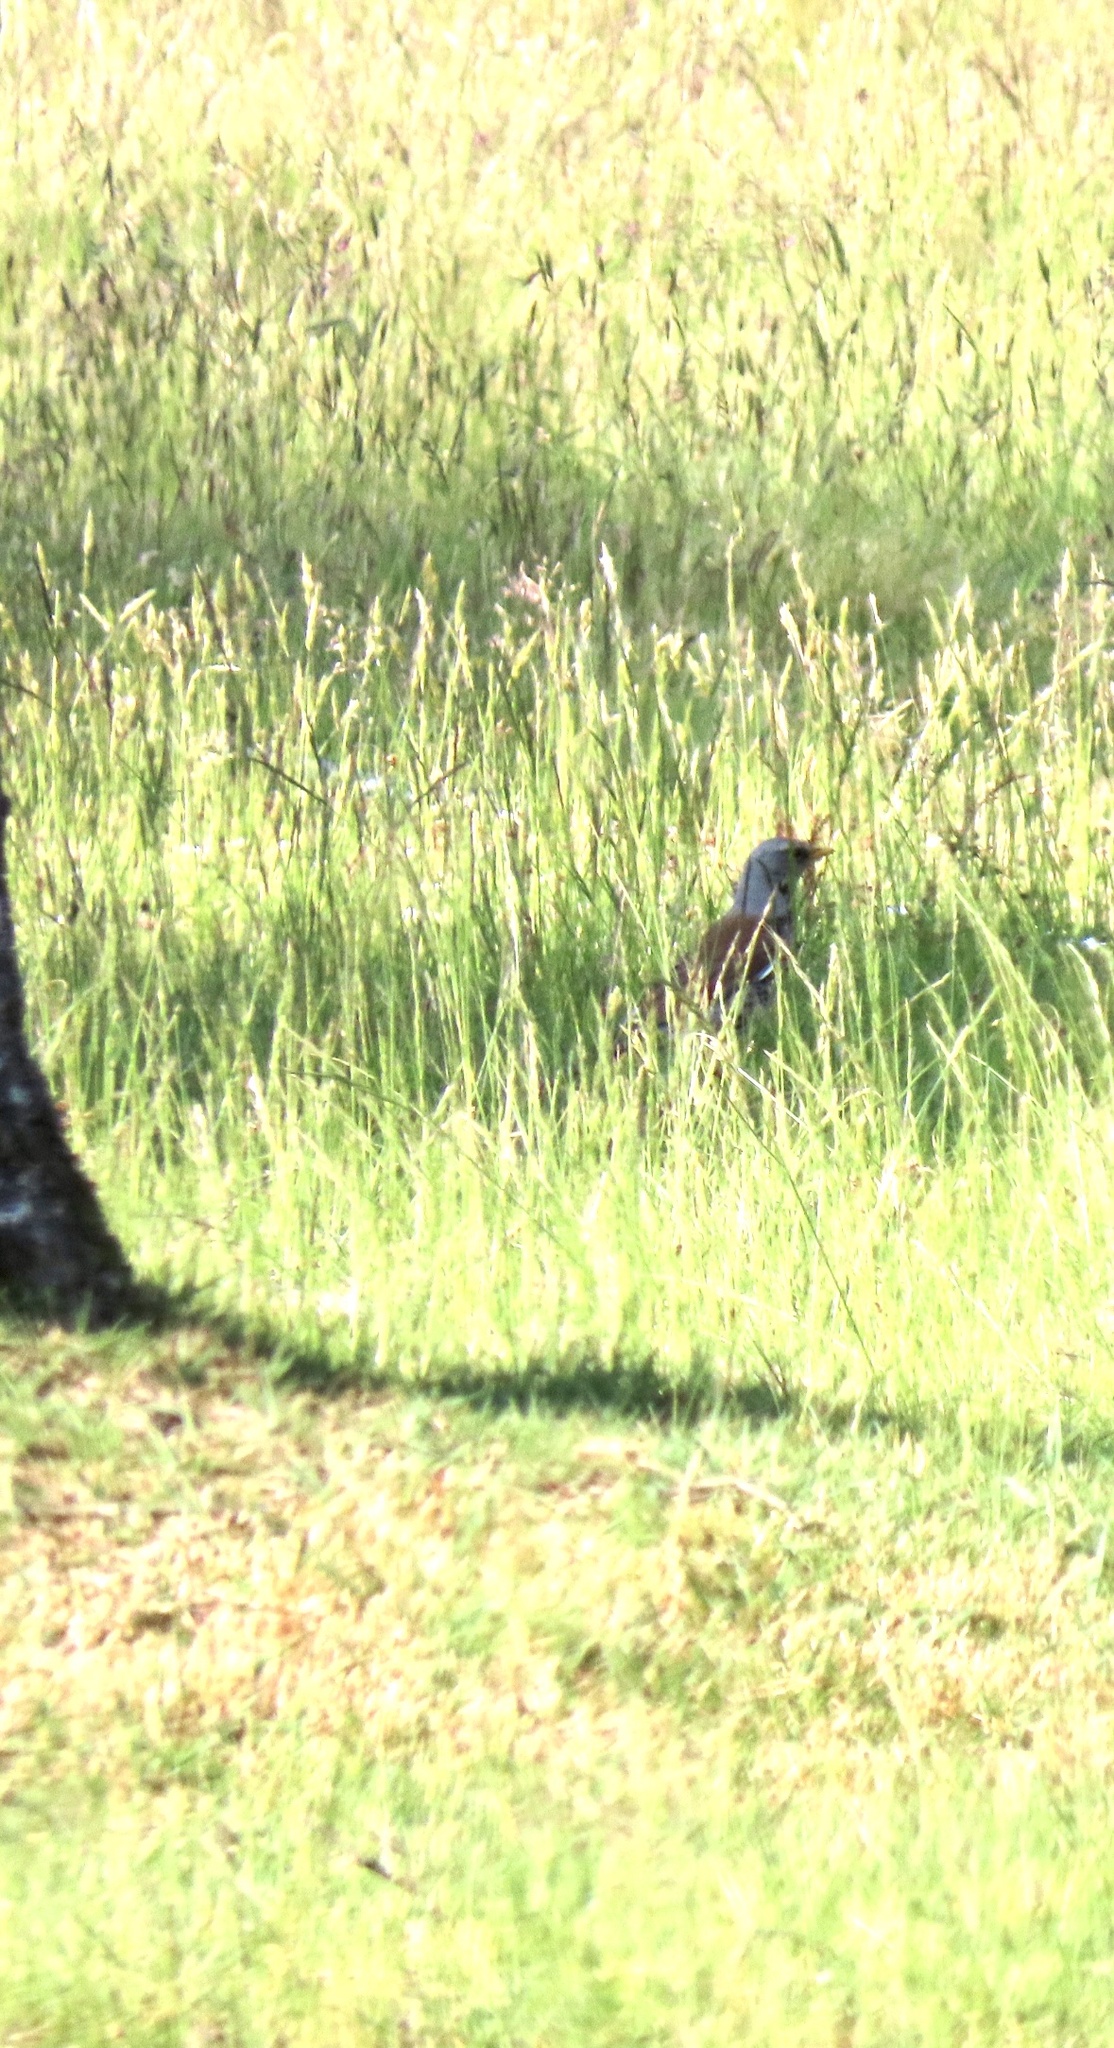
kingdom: Animalia
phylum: Chordata
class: Aves
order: Passeriformes
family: Turdidae
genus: Turdus
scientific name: Turdus pilaris
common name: Fieldfare
